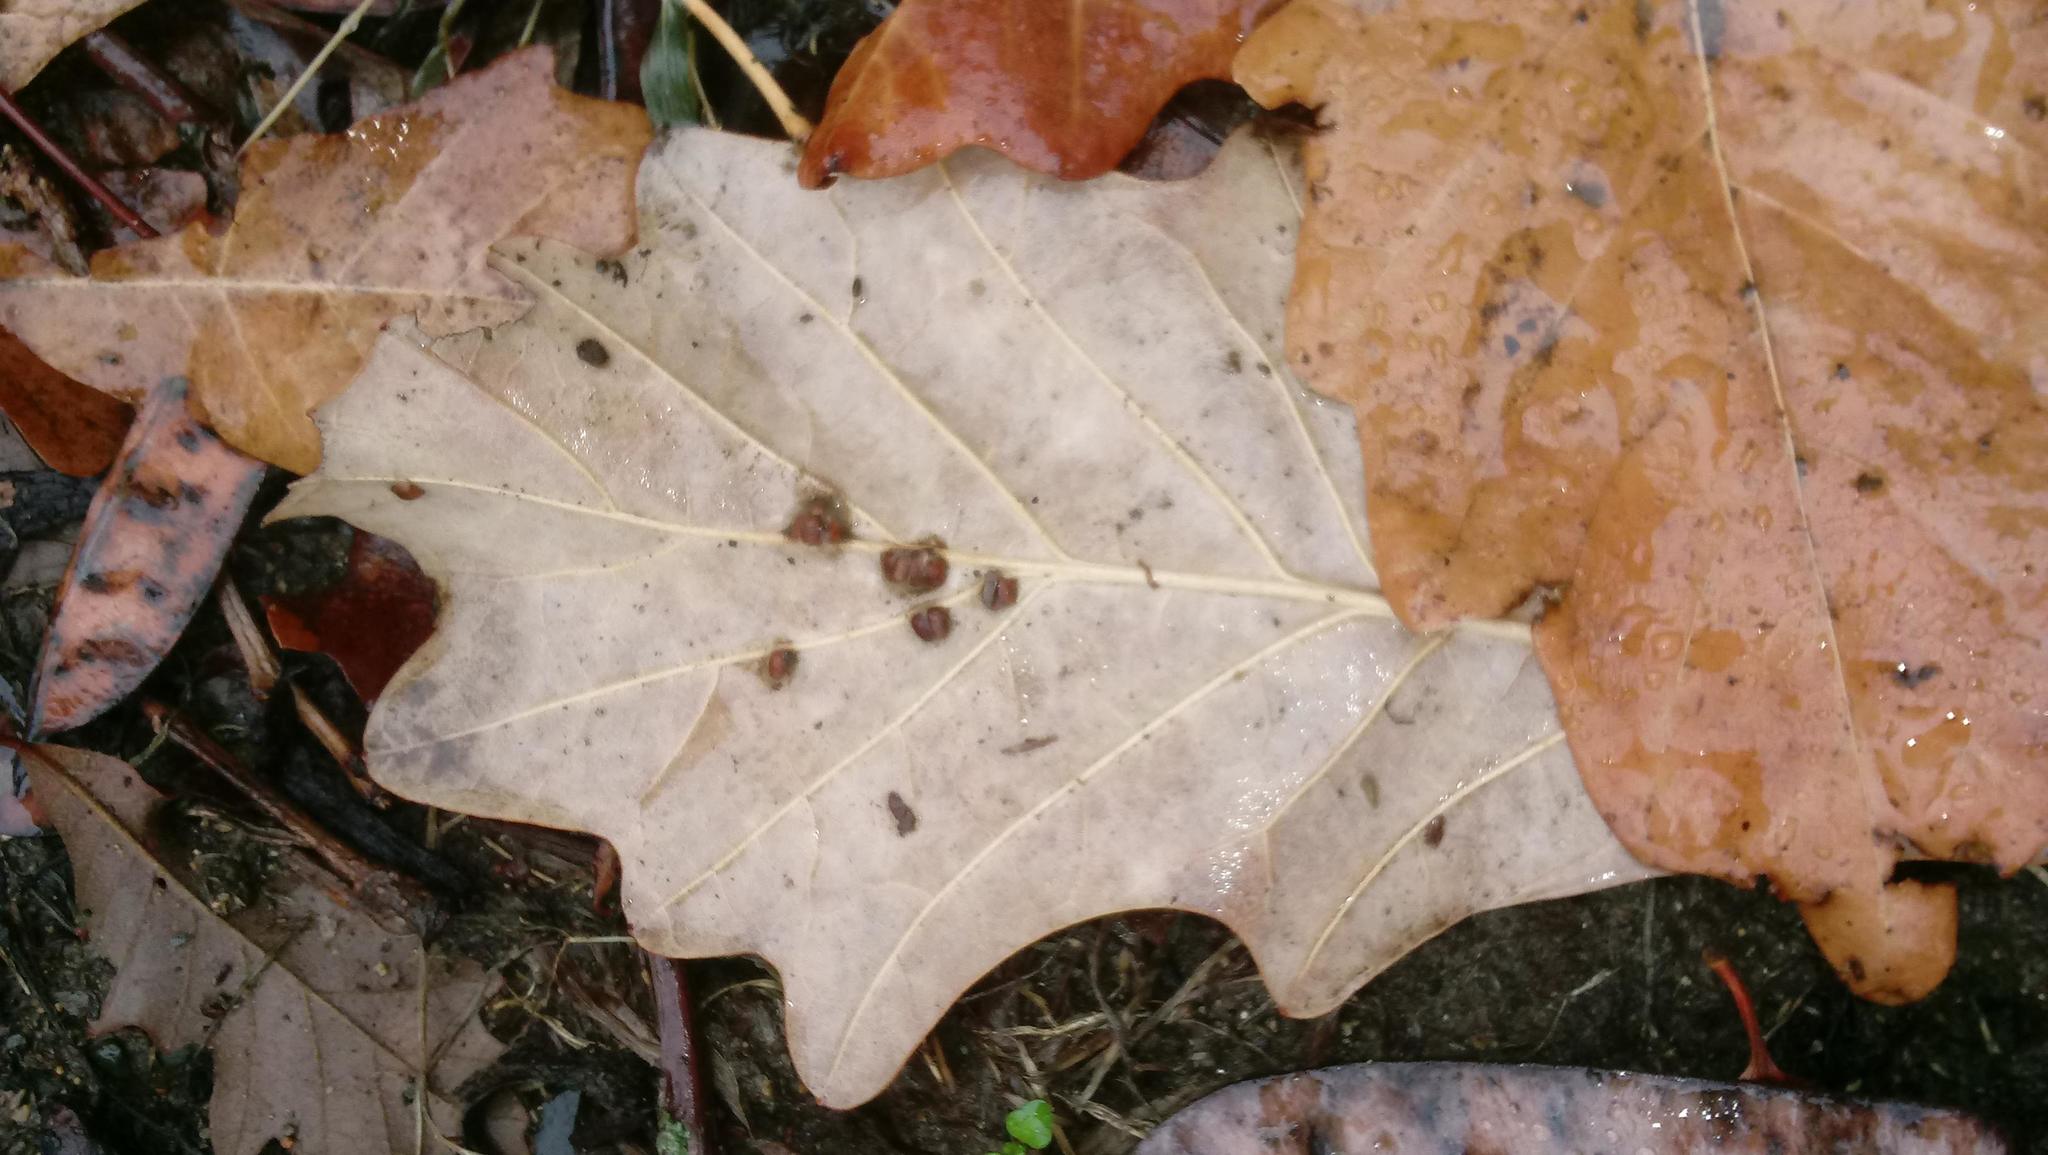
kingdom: Animalia
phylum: Arthropoda
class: Insecta
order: Hymenoptera
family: Cynipidae
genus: Andricus
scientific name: Andricus Druon ignotum
